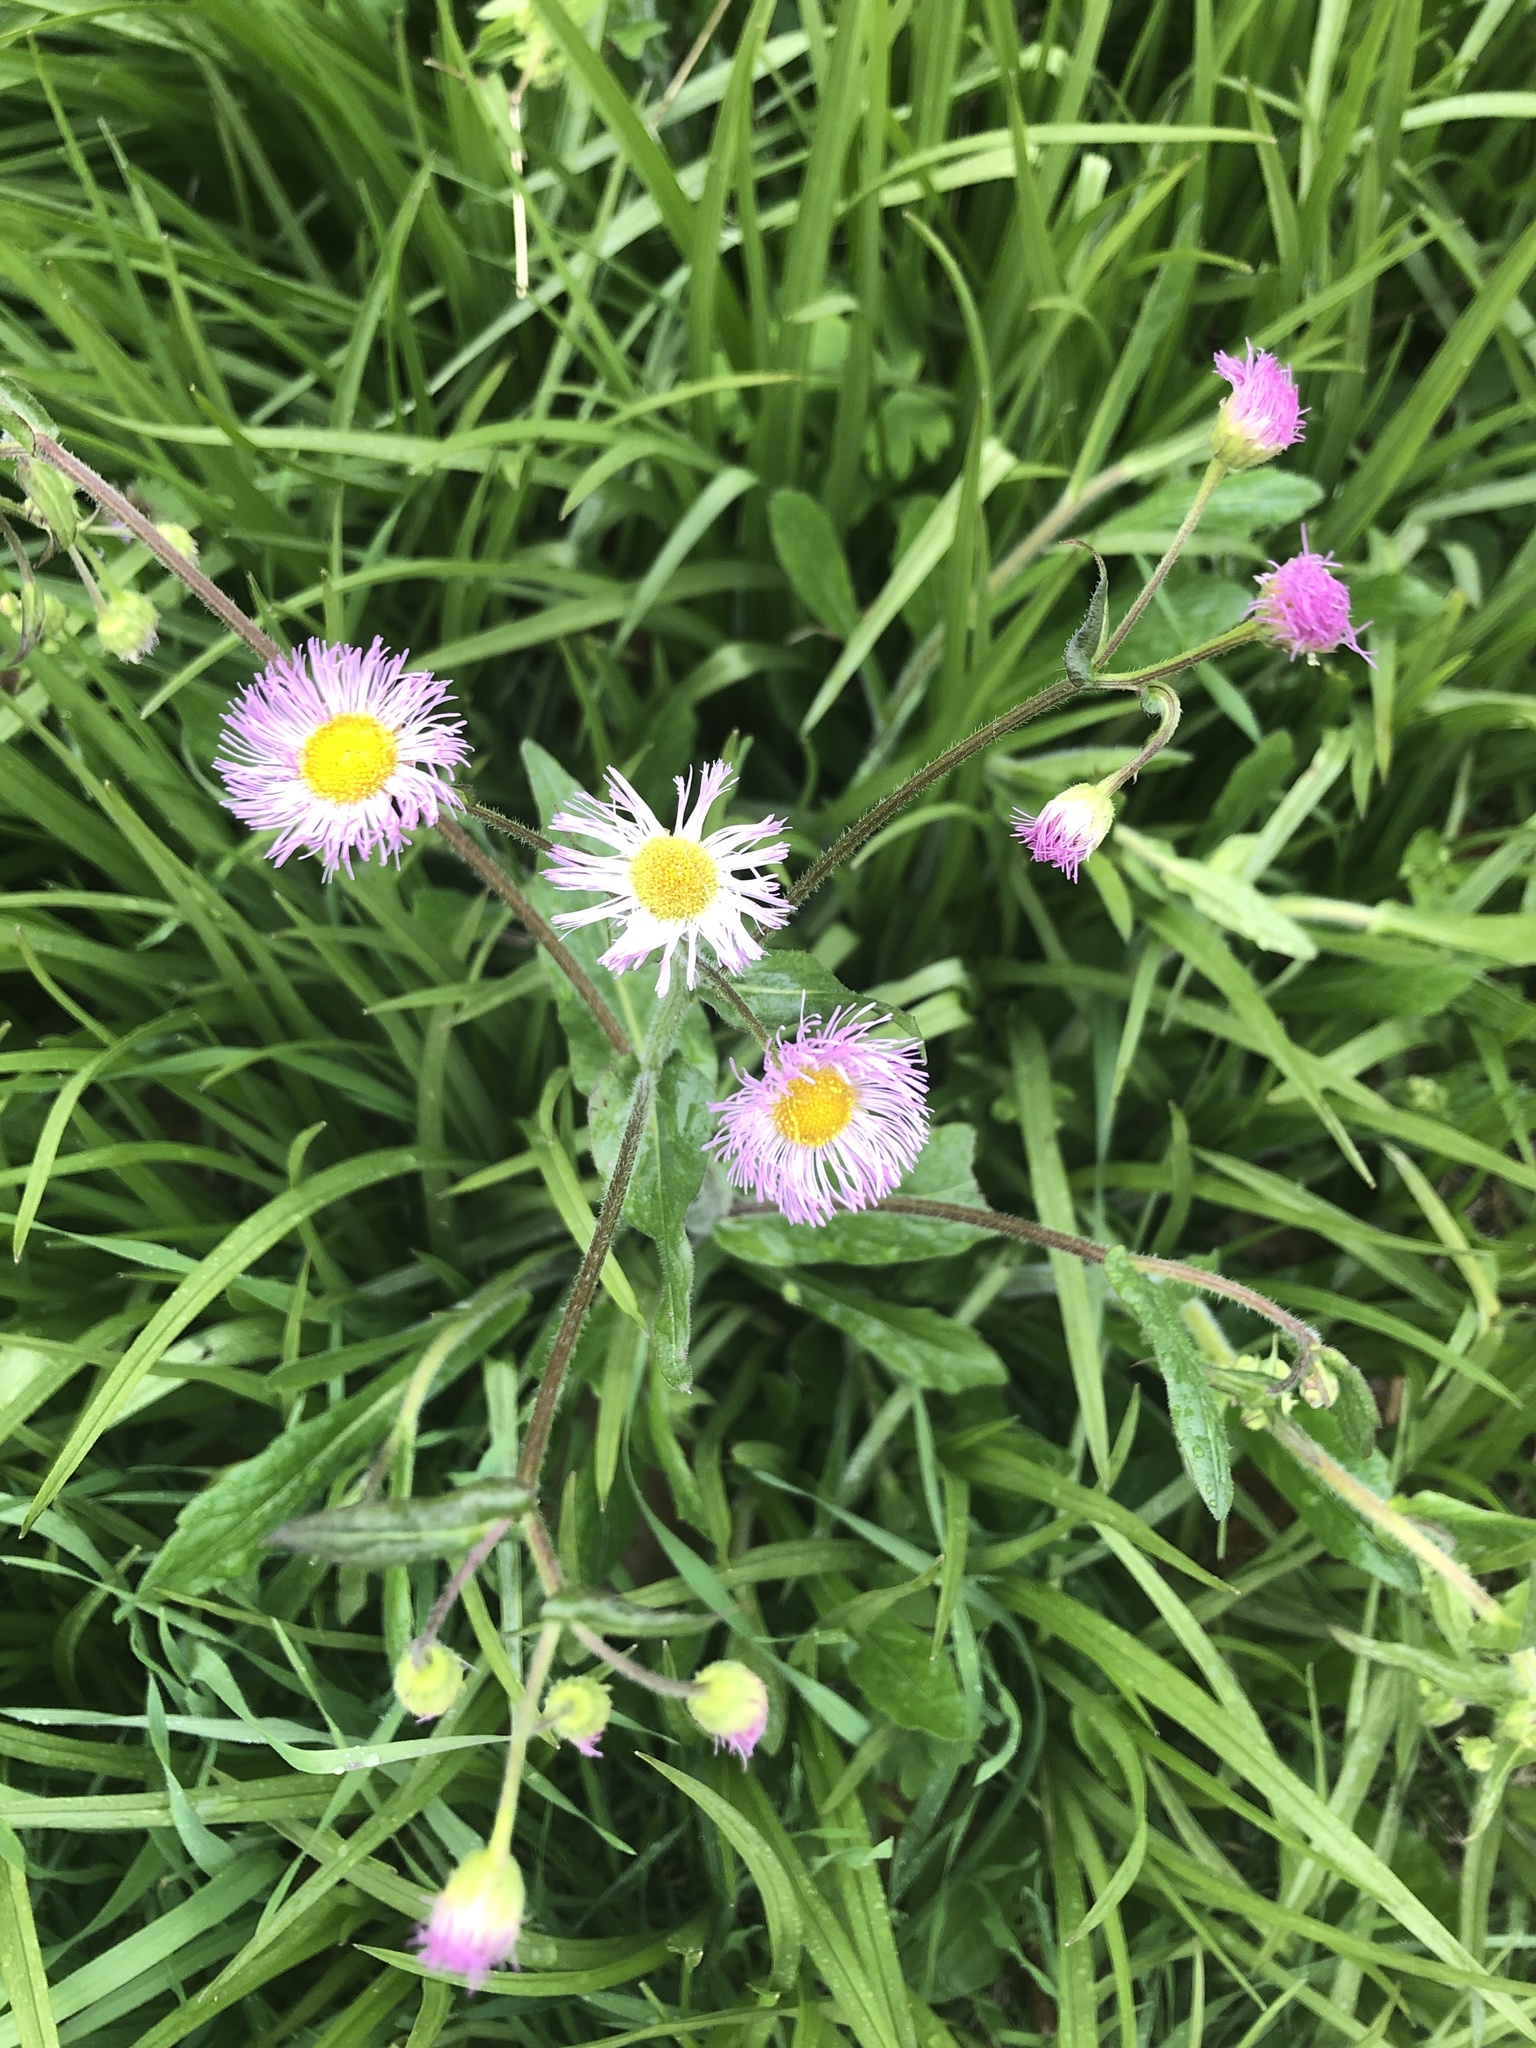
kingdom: Plantae
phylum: Tracheophyta
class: Magnoliopsida
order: Asterales
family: Asteraceae
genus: Erigeron
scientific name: Erigeron philadelphicus
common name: Robin's-plantain
